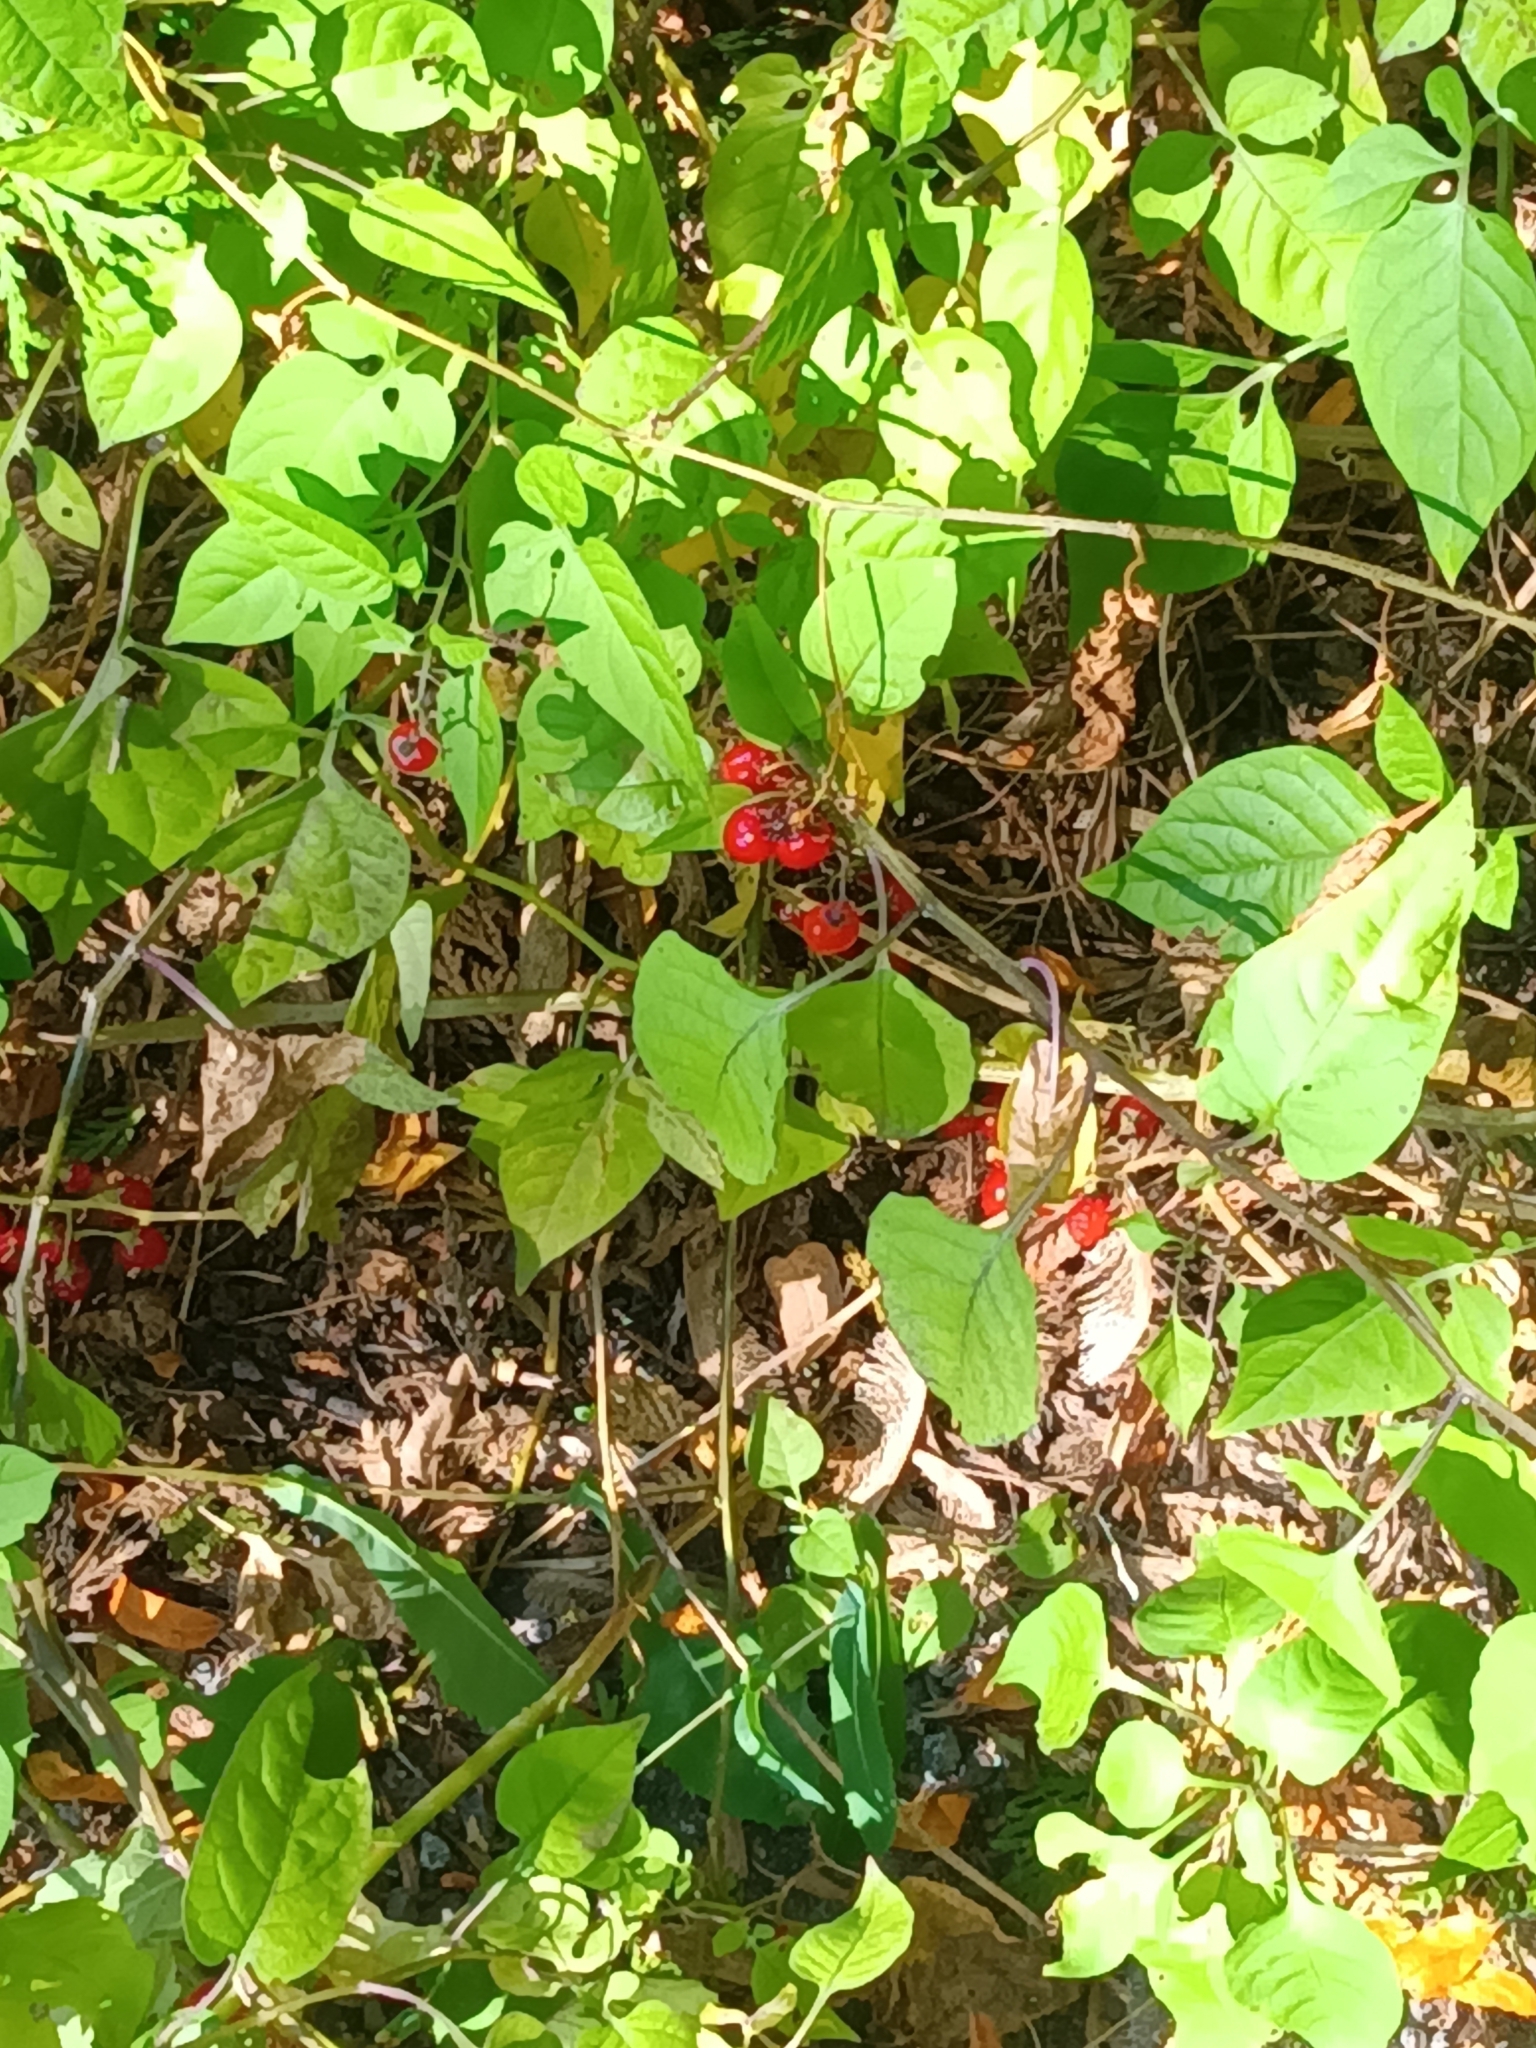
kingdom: Plantae
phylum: Tracheophyta
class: Magnoliopsida
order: Solanales
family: Solanaceae
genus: Solanum
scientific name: Solanum dulcamara
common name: Climbing nightshade
